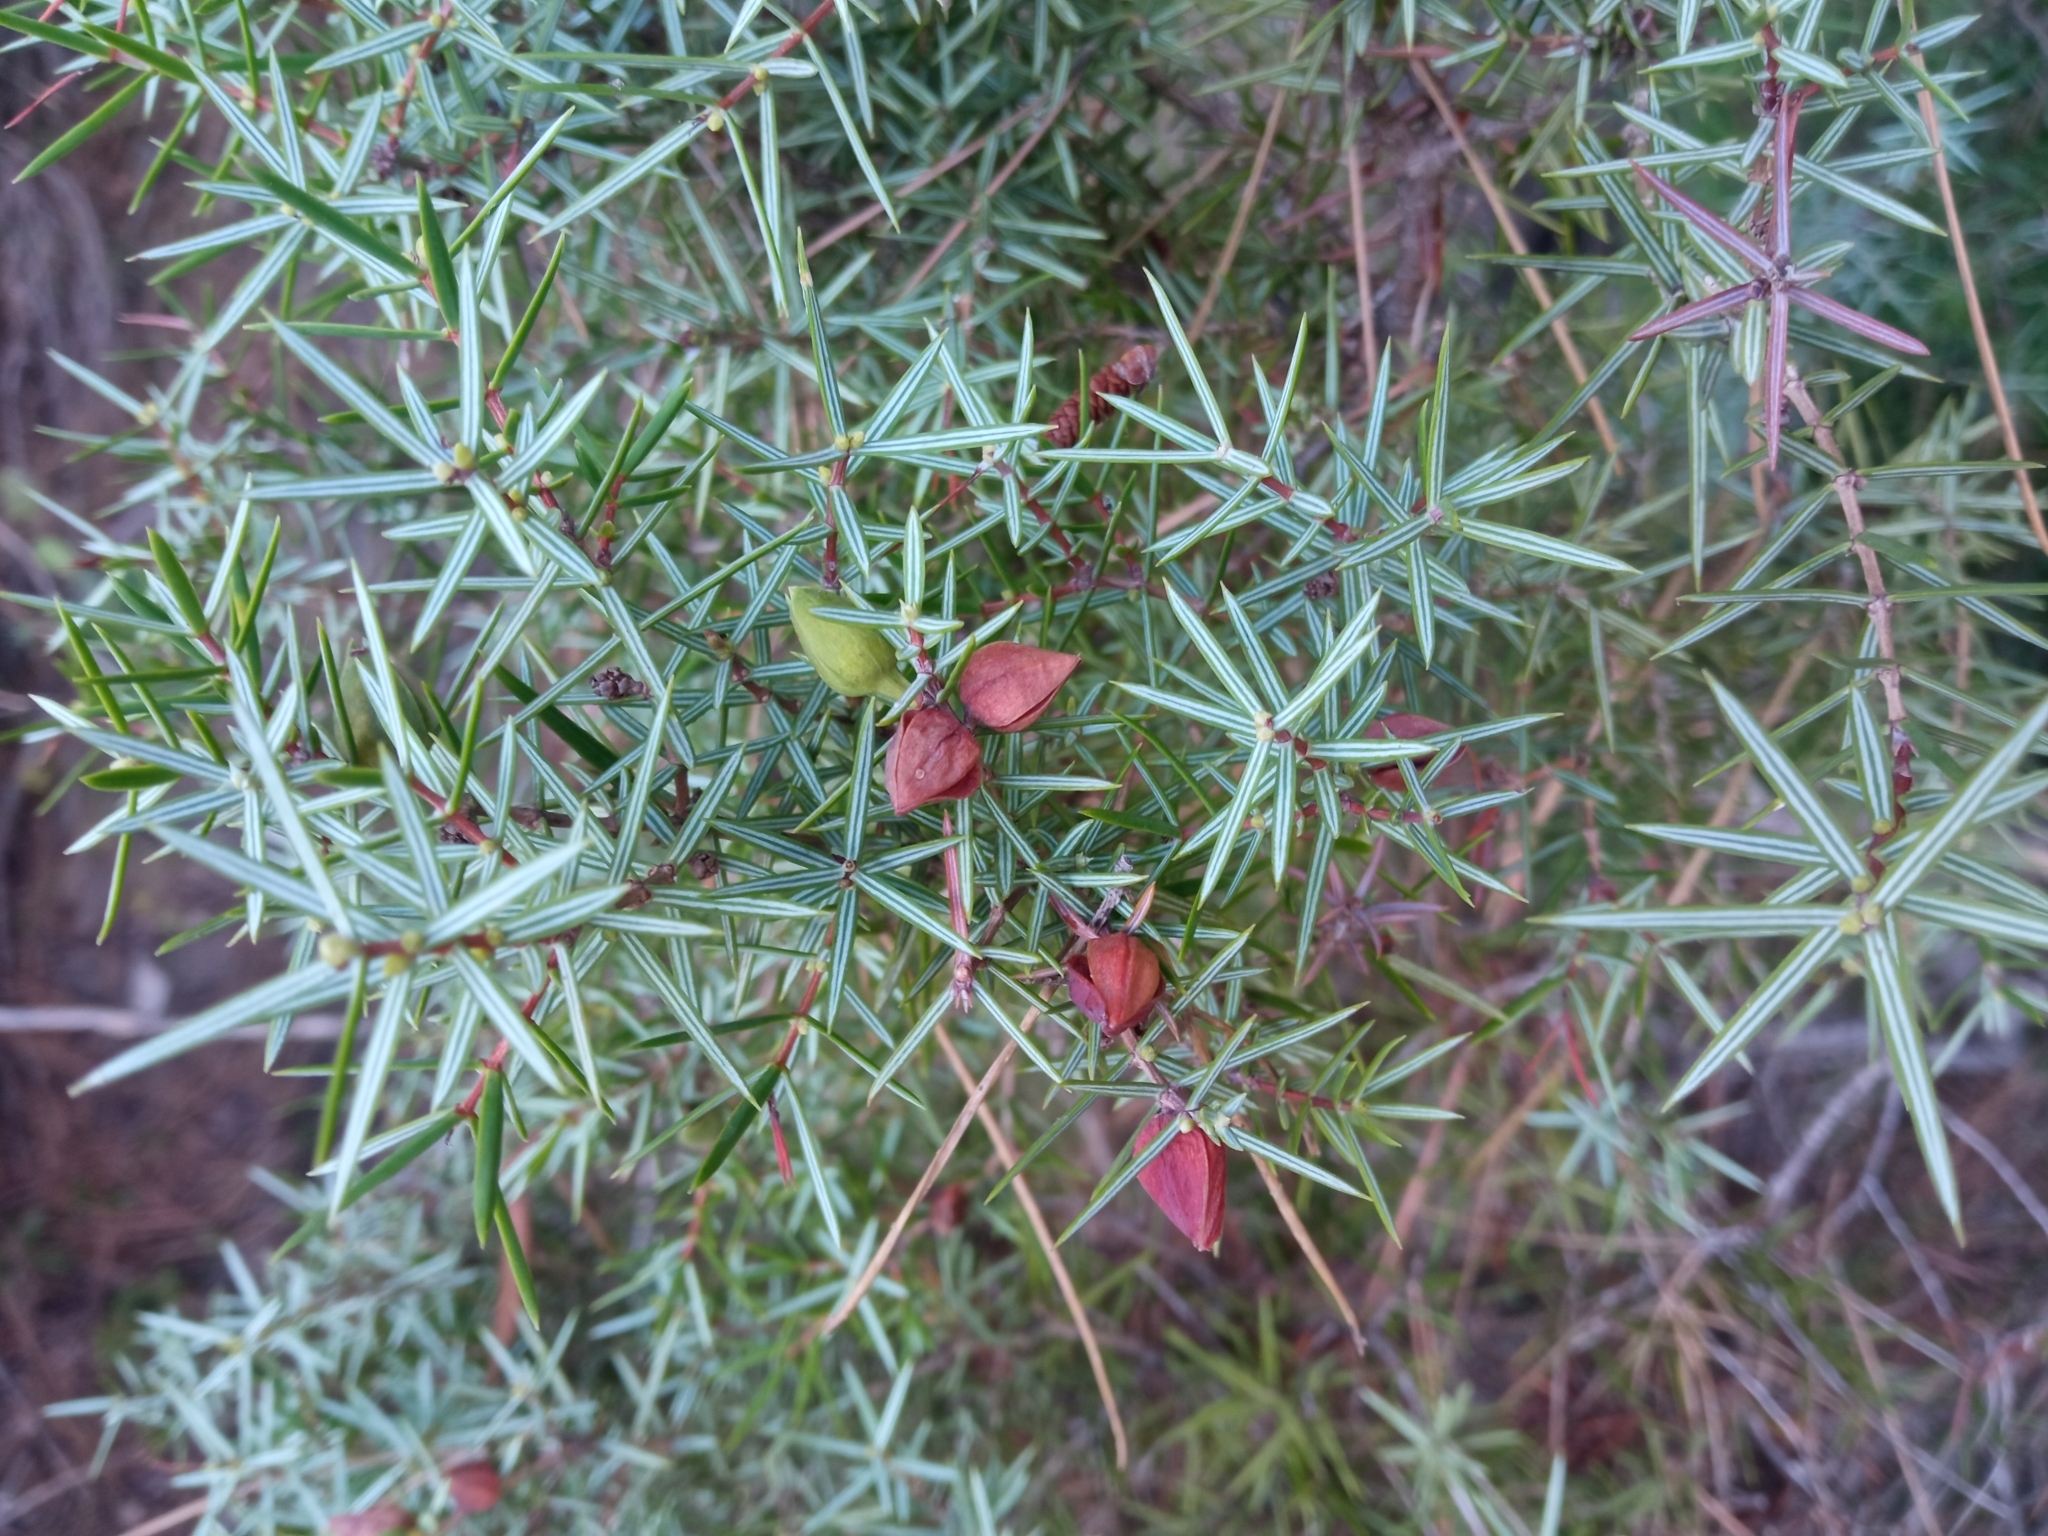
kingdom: Plantae
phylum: Tracheophyta
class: Pinopsida
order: Pinales
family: Cupressaceae
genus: Juniperus
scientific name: Juniperus oxycedrus
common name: Prickly juniper
